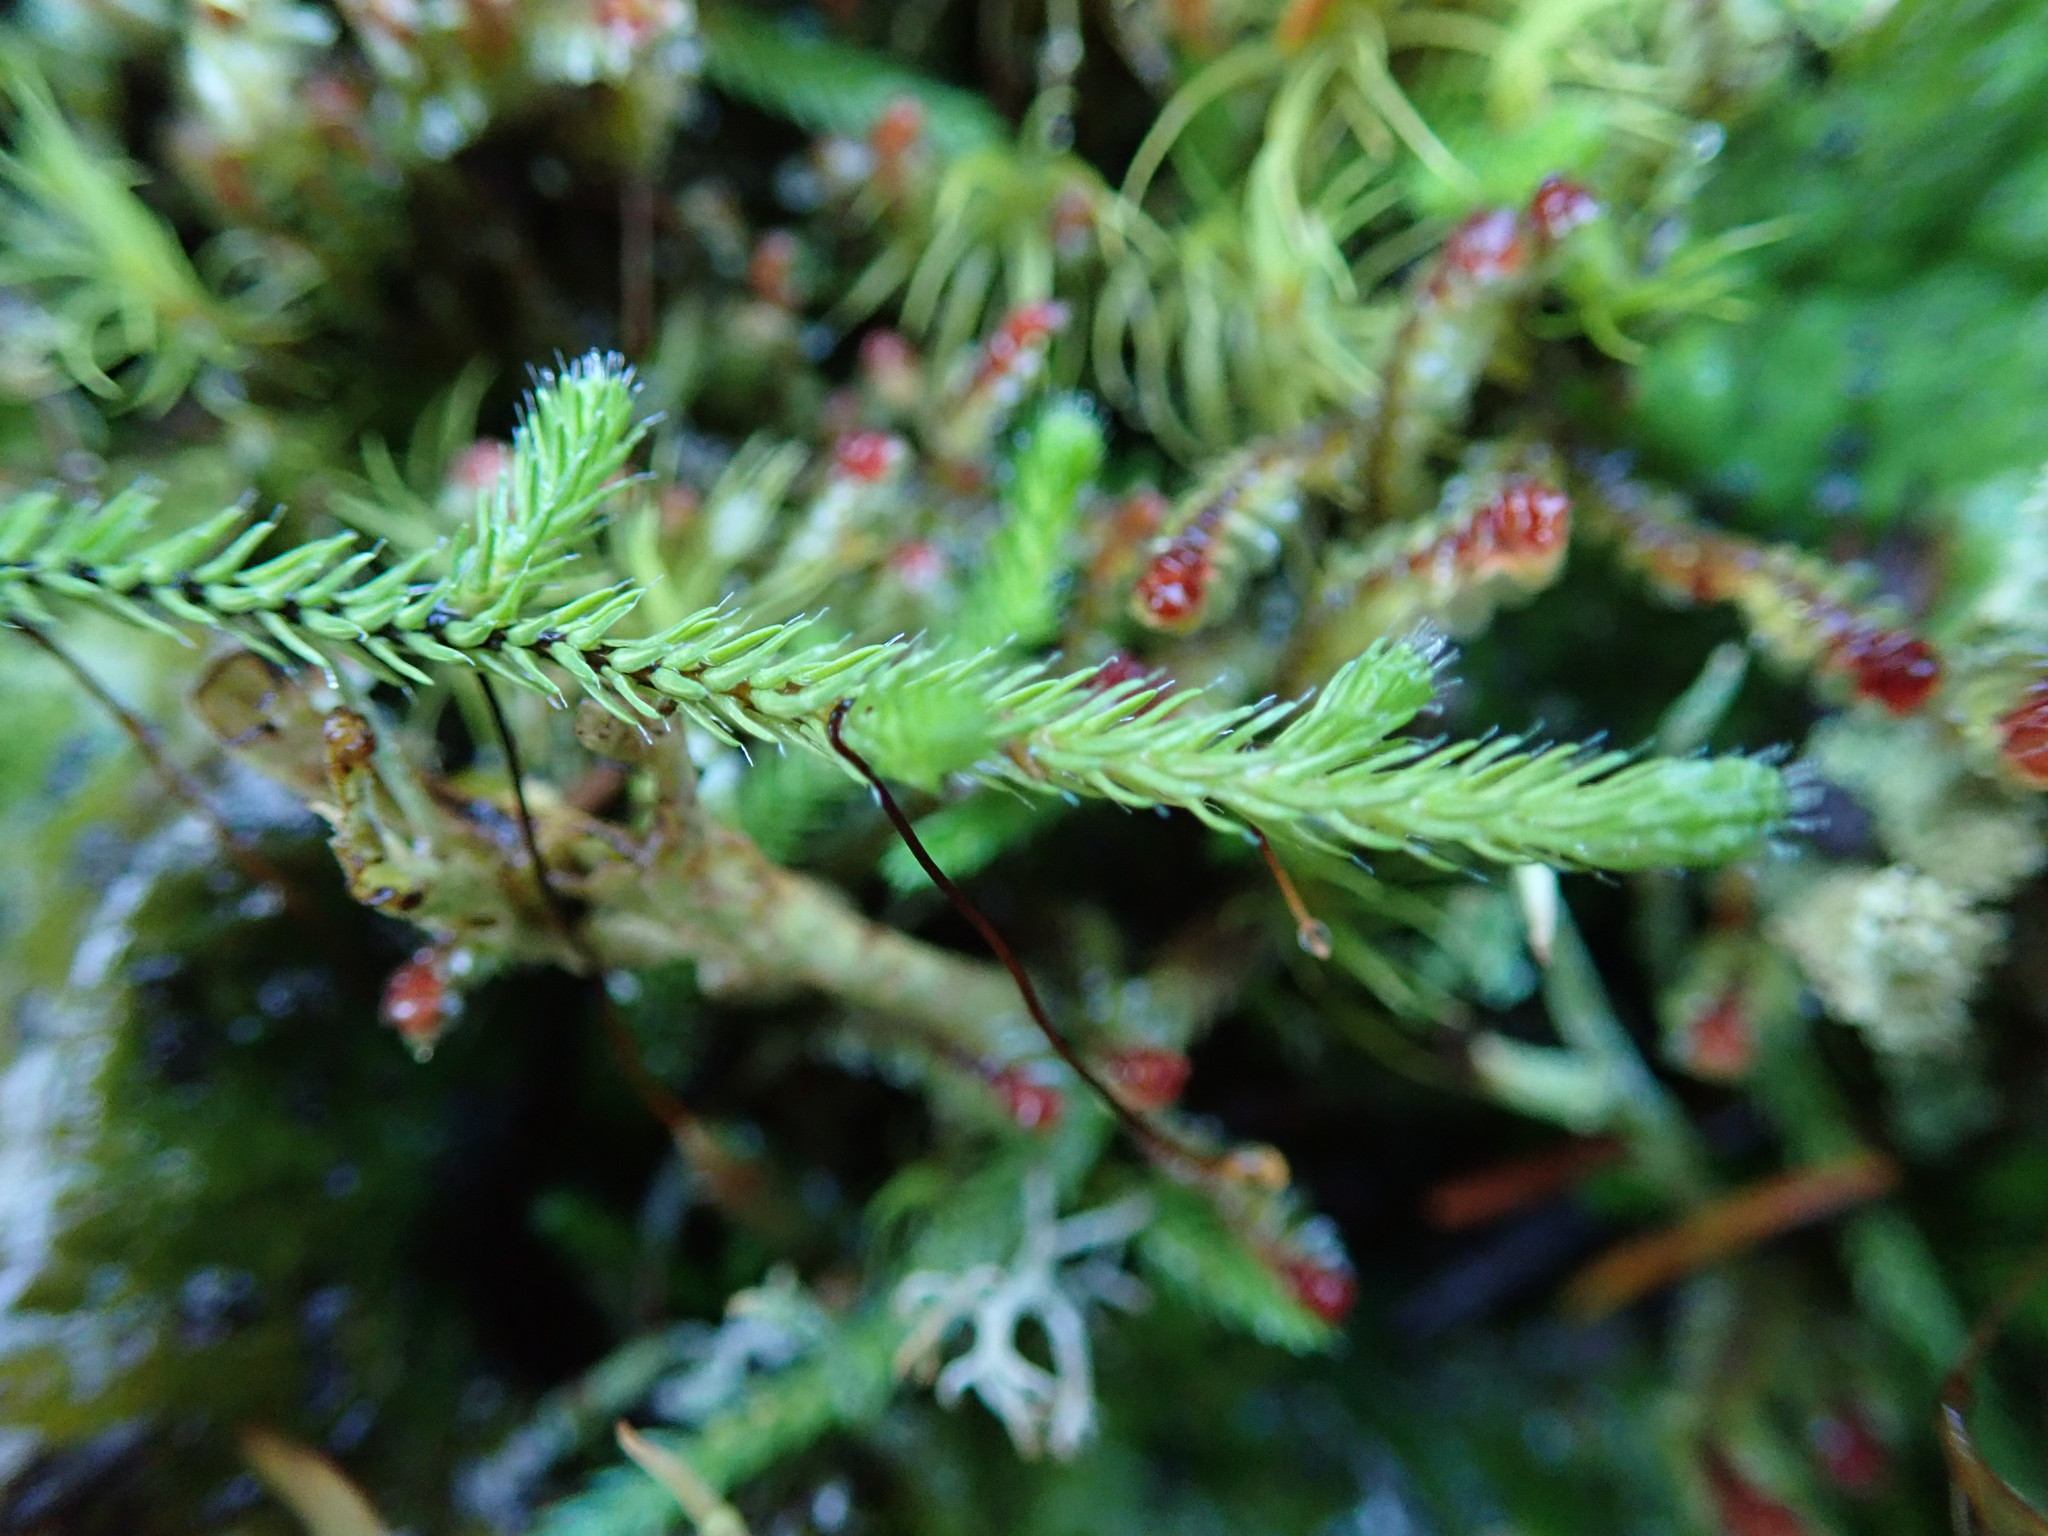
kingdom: Plantae
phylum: Tracheophyta
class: Lycopodiopsida
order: Selaginellales
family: Selaginellaceae
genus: Selaginella
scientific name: Selaginella wallacei
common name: Wallace's selaginella
